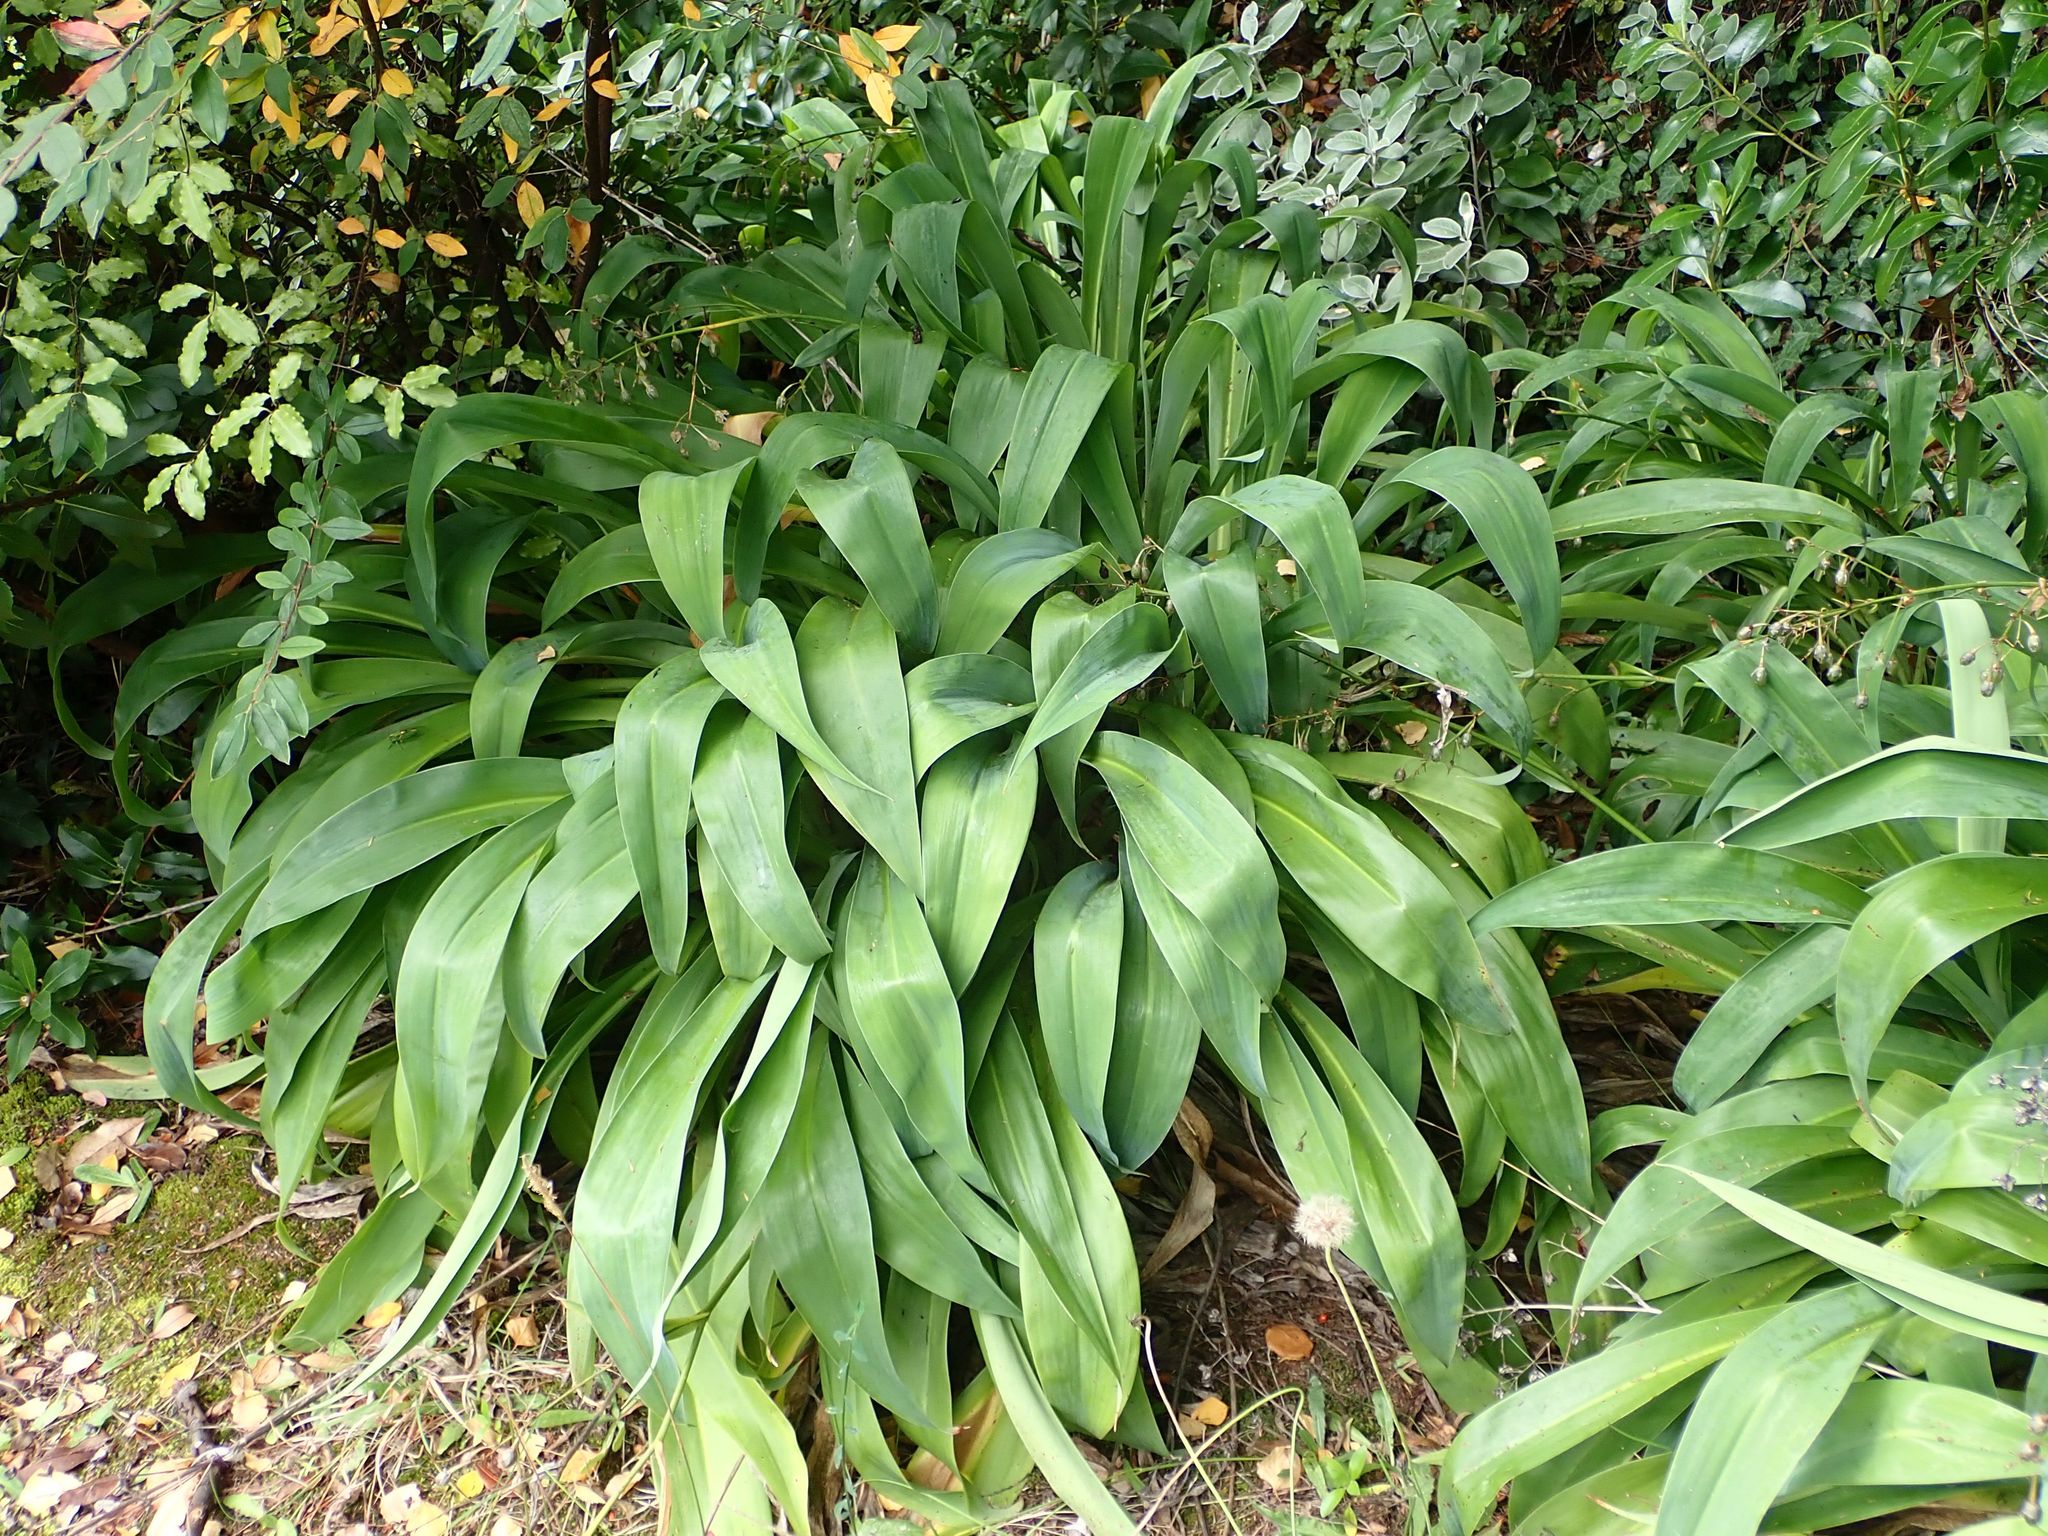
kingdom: Plantae
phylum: Tracheophyta
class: Liliopsida
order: Asparagales
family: Asparagaceae
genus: Arthropodium
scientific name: Arthropodium cirratum
